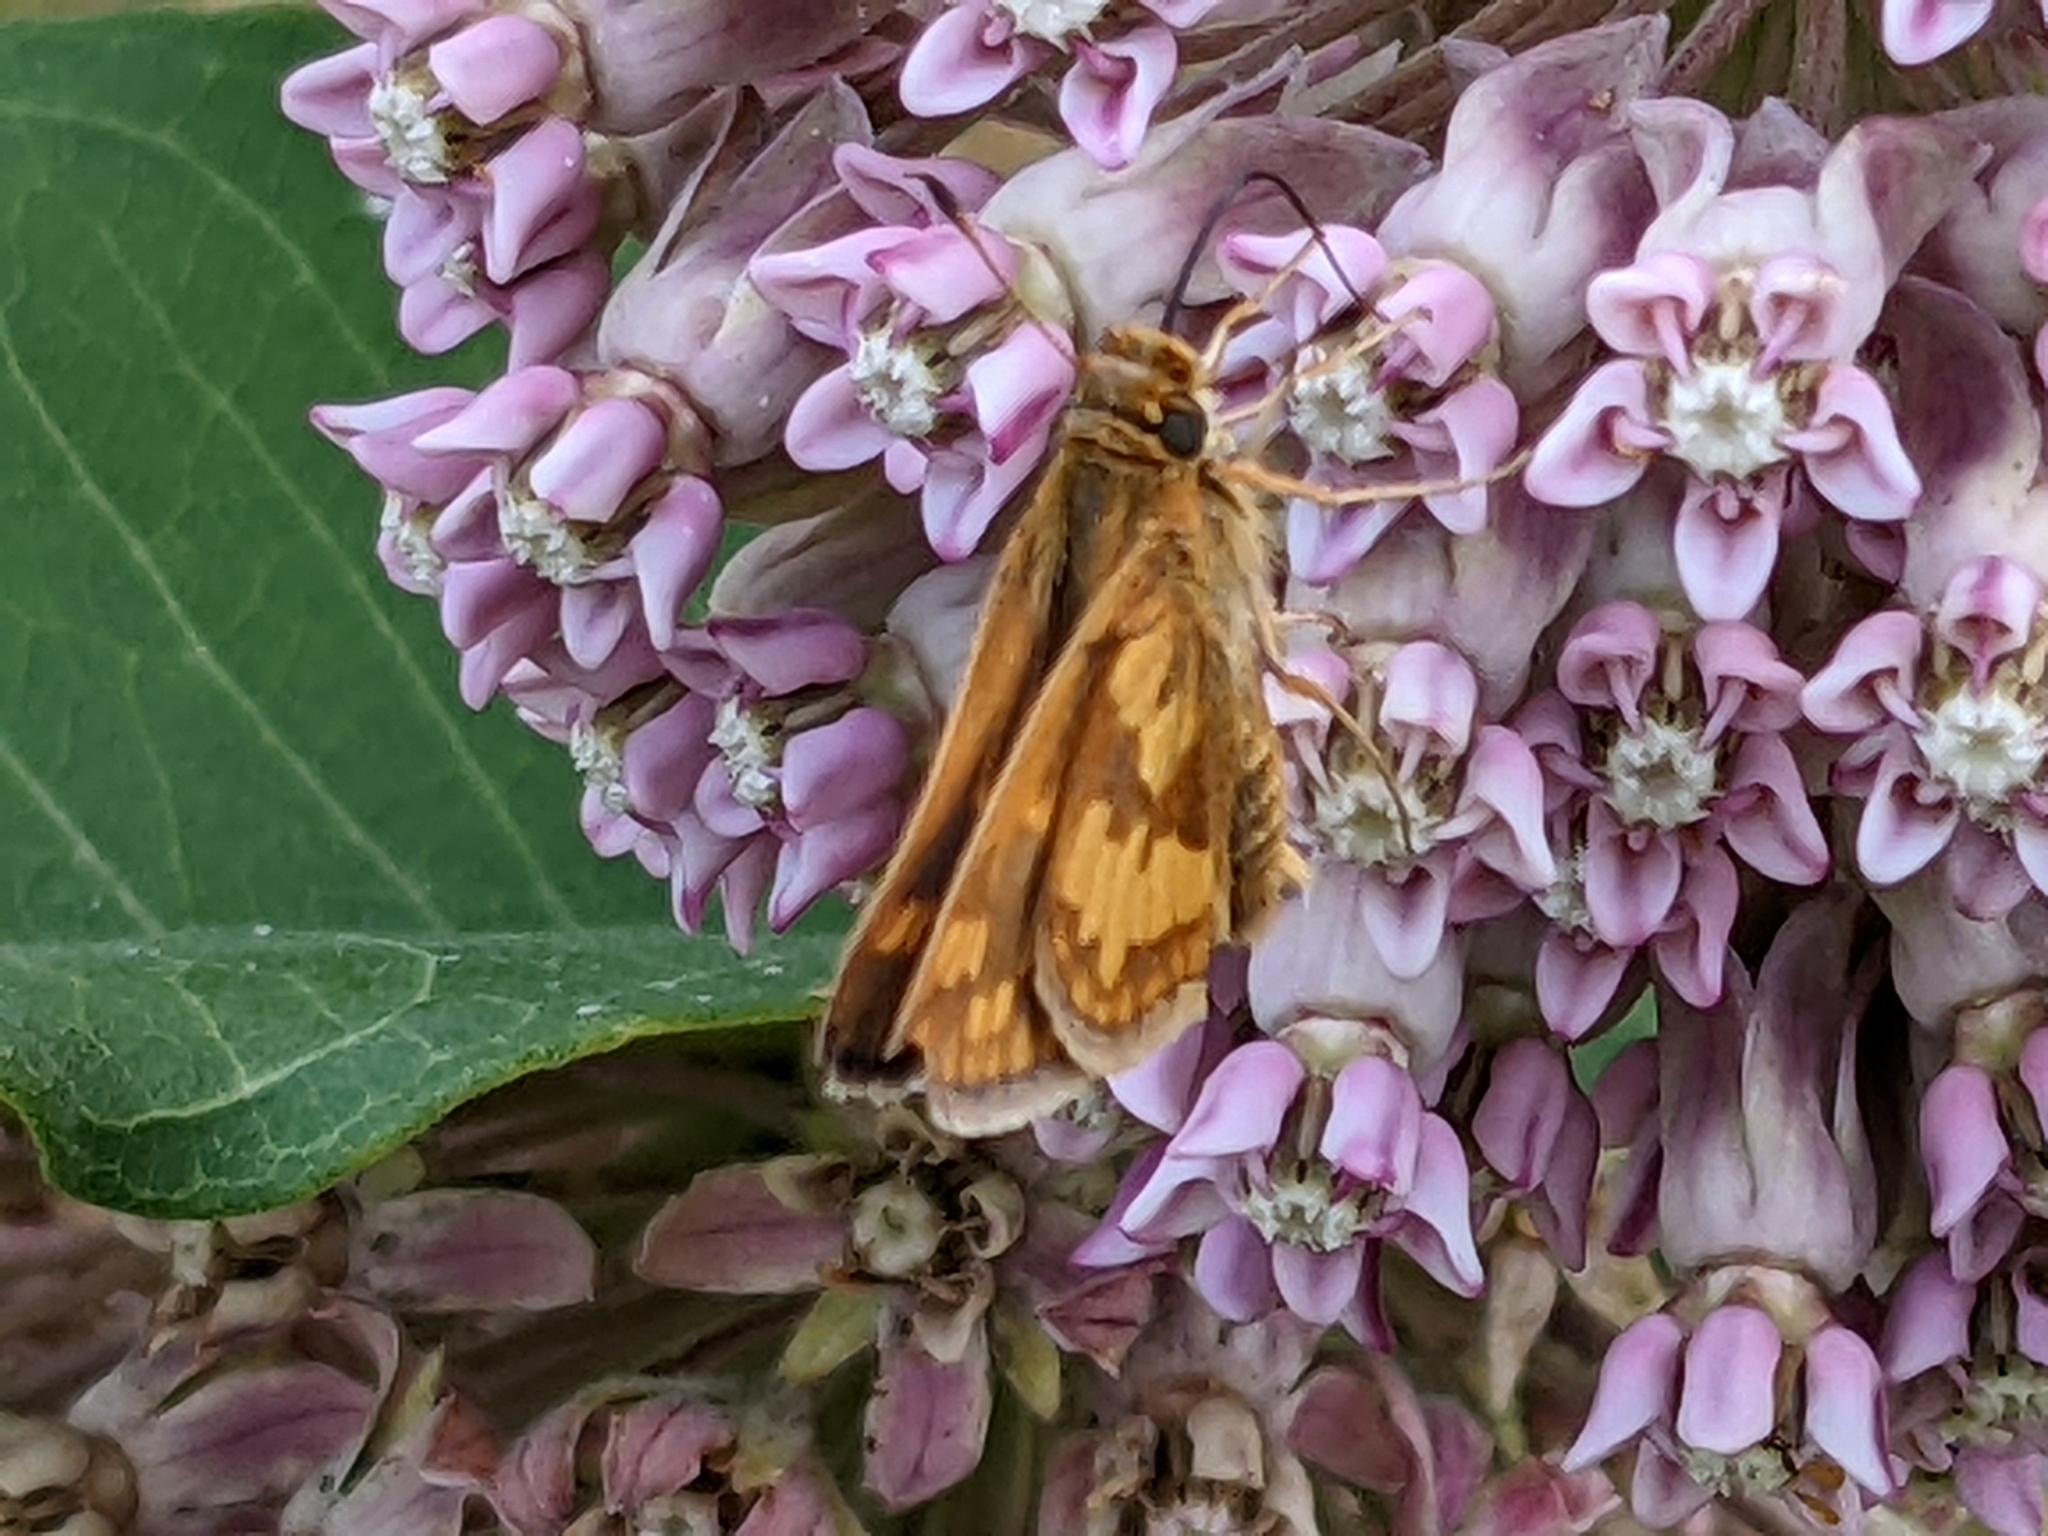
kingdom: Animalia
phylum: Arthropoda
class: Insecta
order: Lepidoptera
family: Hesperiidae
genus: Polites
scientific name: Polites coras
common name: Peck's skipper
